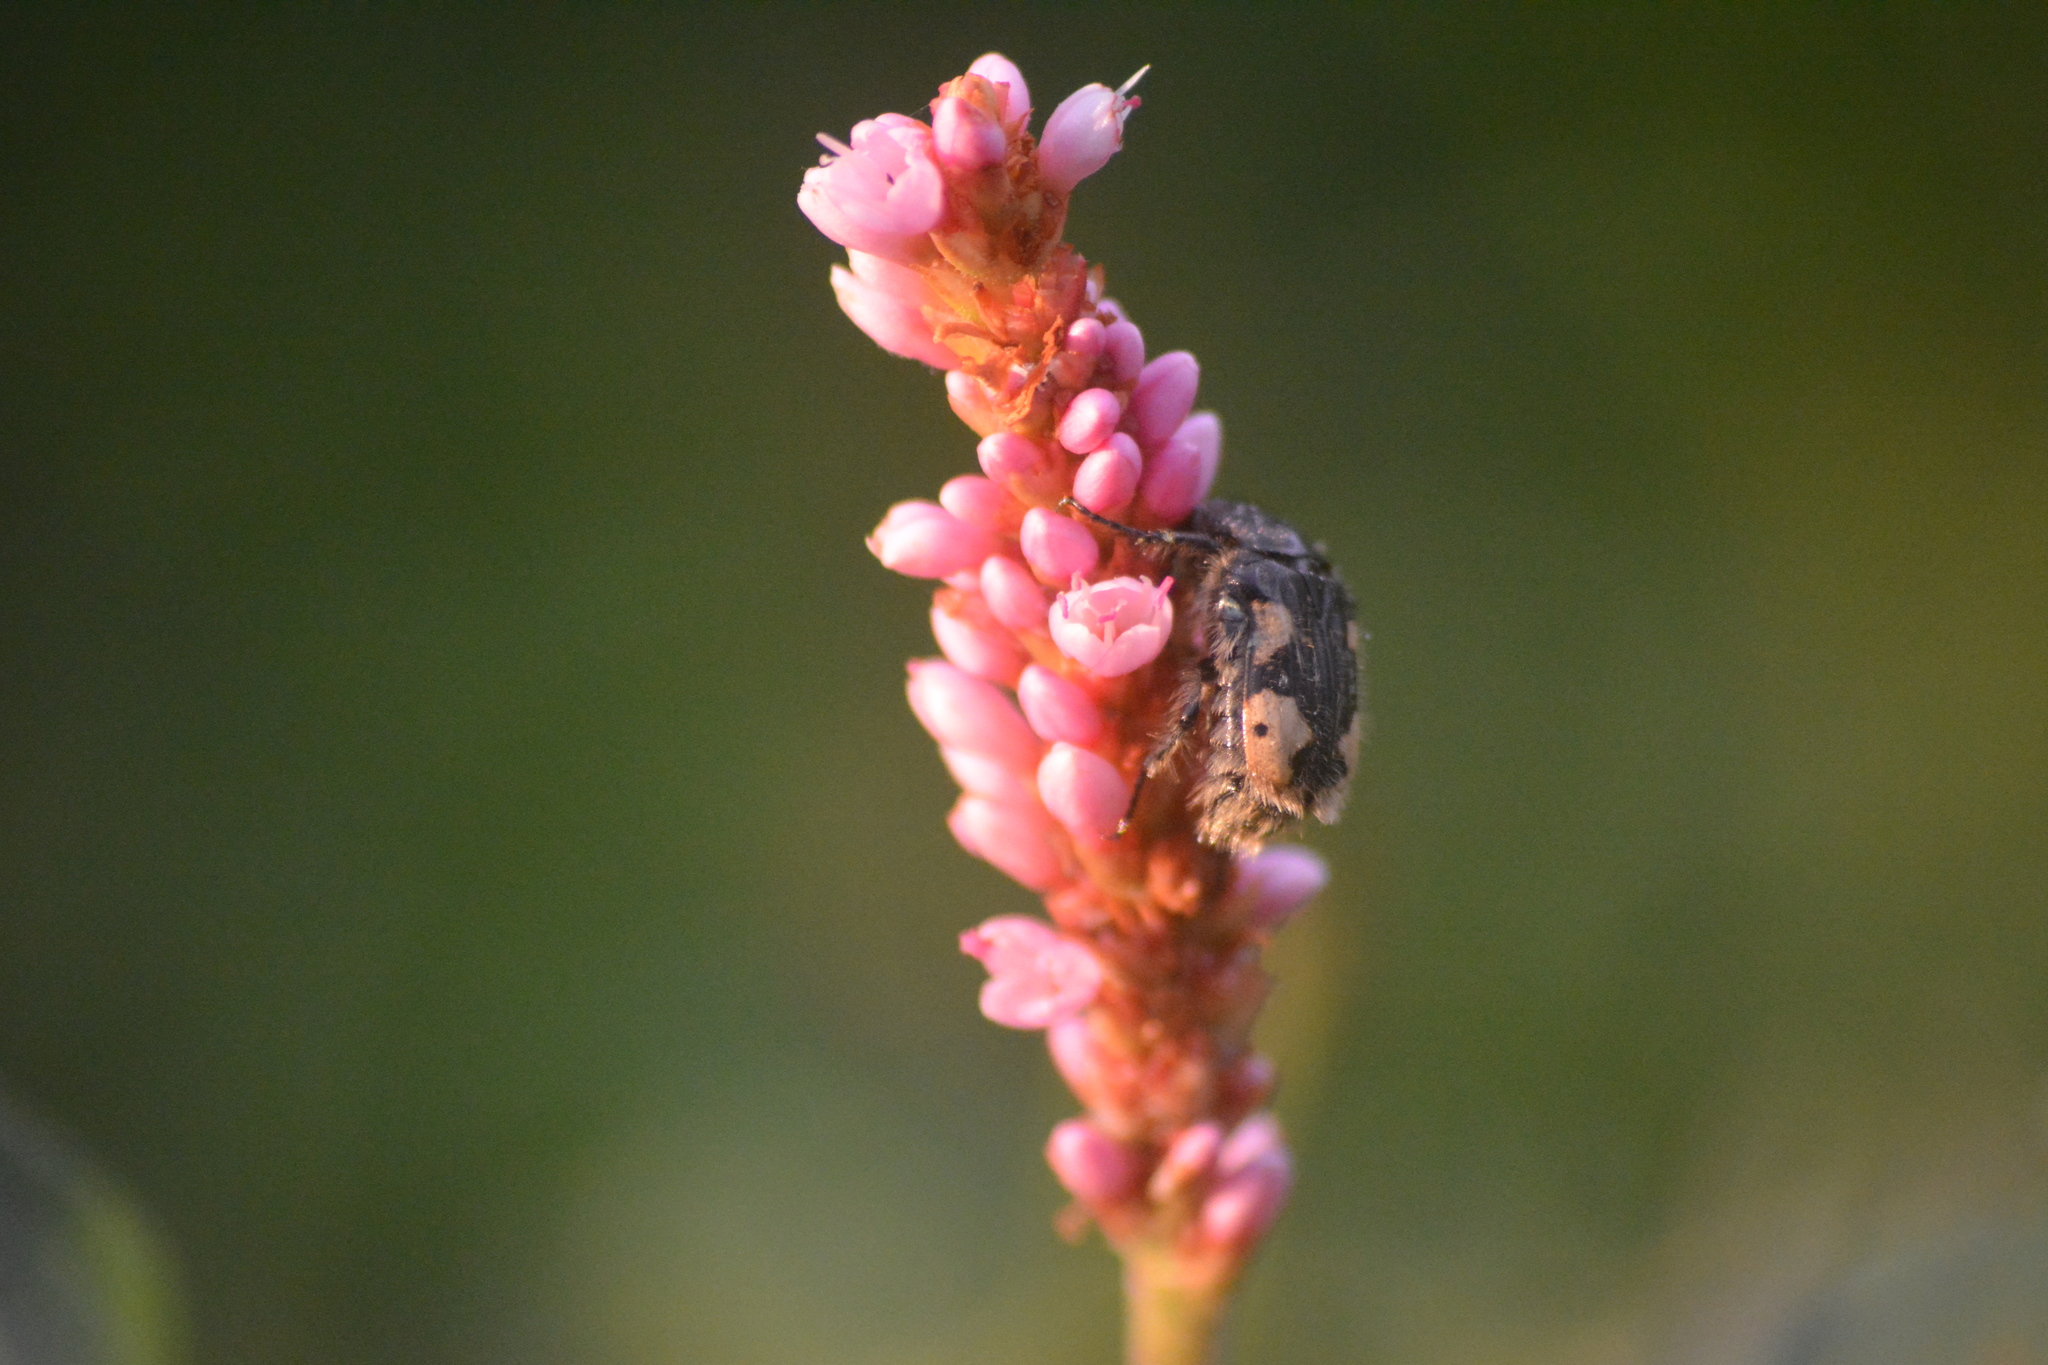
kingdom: Animalia
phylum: Arthropoda
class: Insecta
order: Coleoptera
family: Scarabaeidae
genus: Euphoria
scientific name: Euphoria basalis
